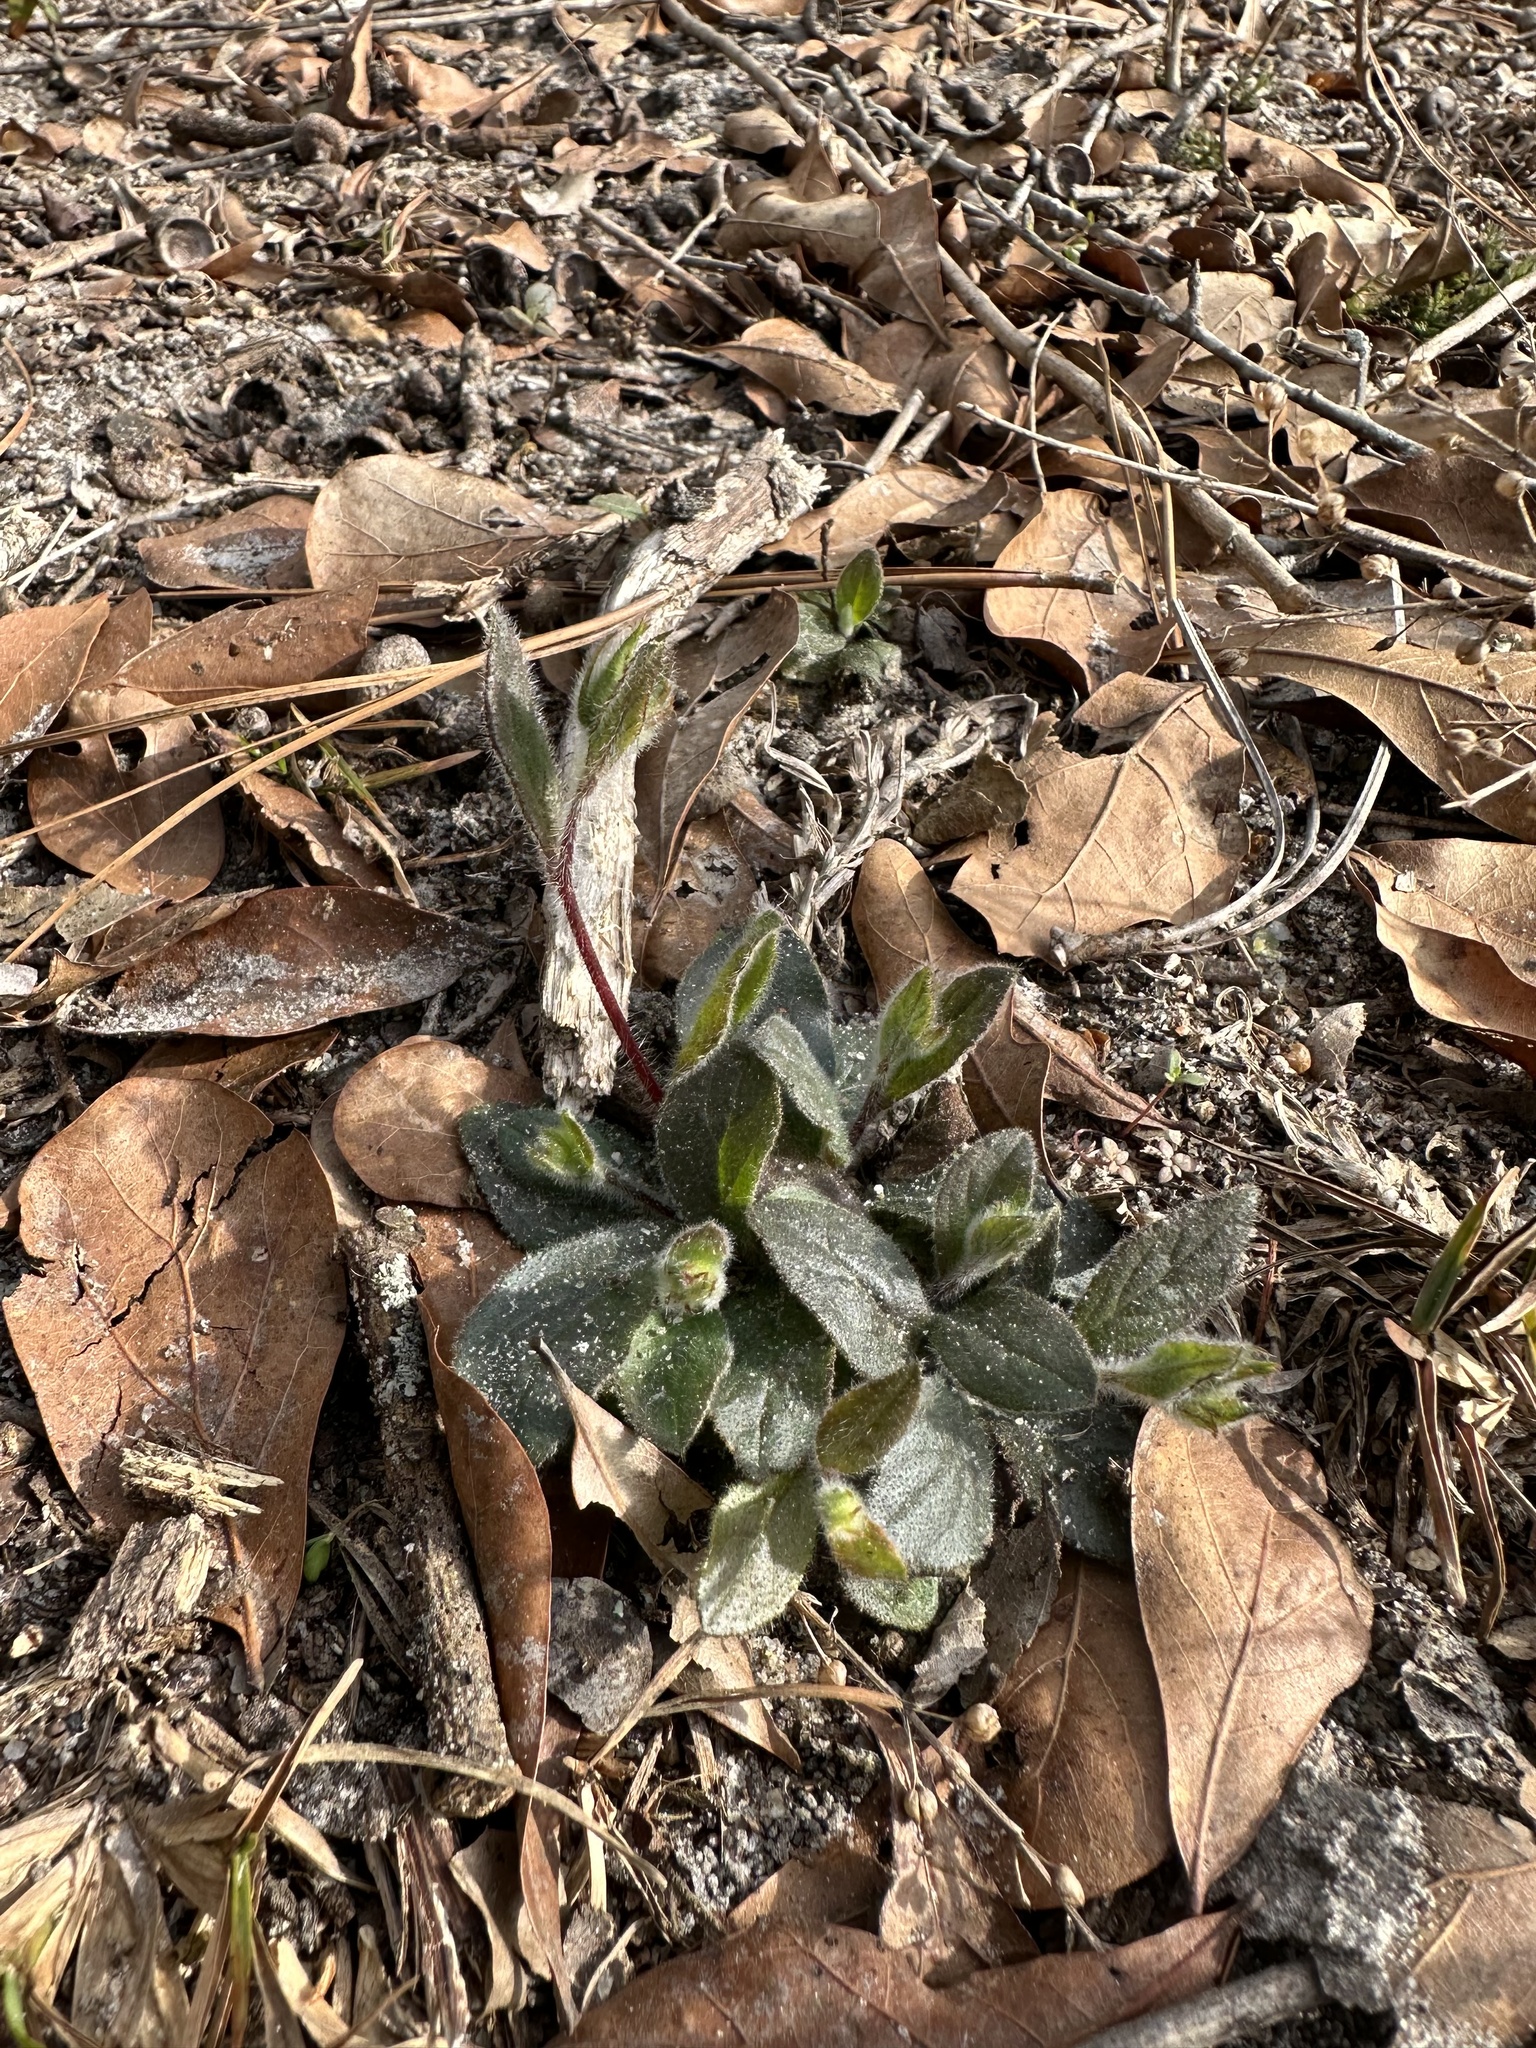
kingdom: Plantae
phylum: Tracheophyta
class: Magnoliopsida
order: Malvales
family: Cistaceae
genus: Crocanthemum
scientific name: Crocanthemum carolinianum
